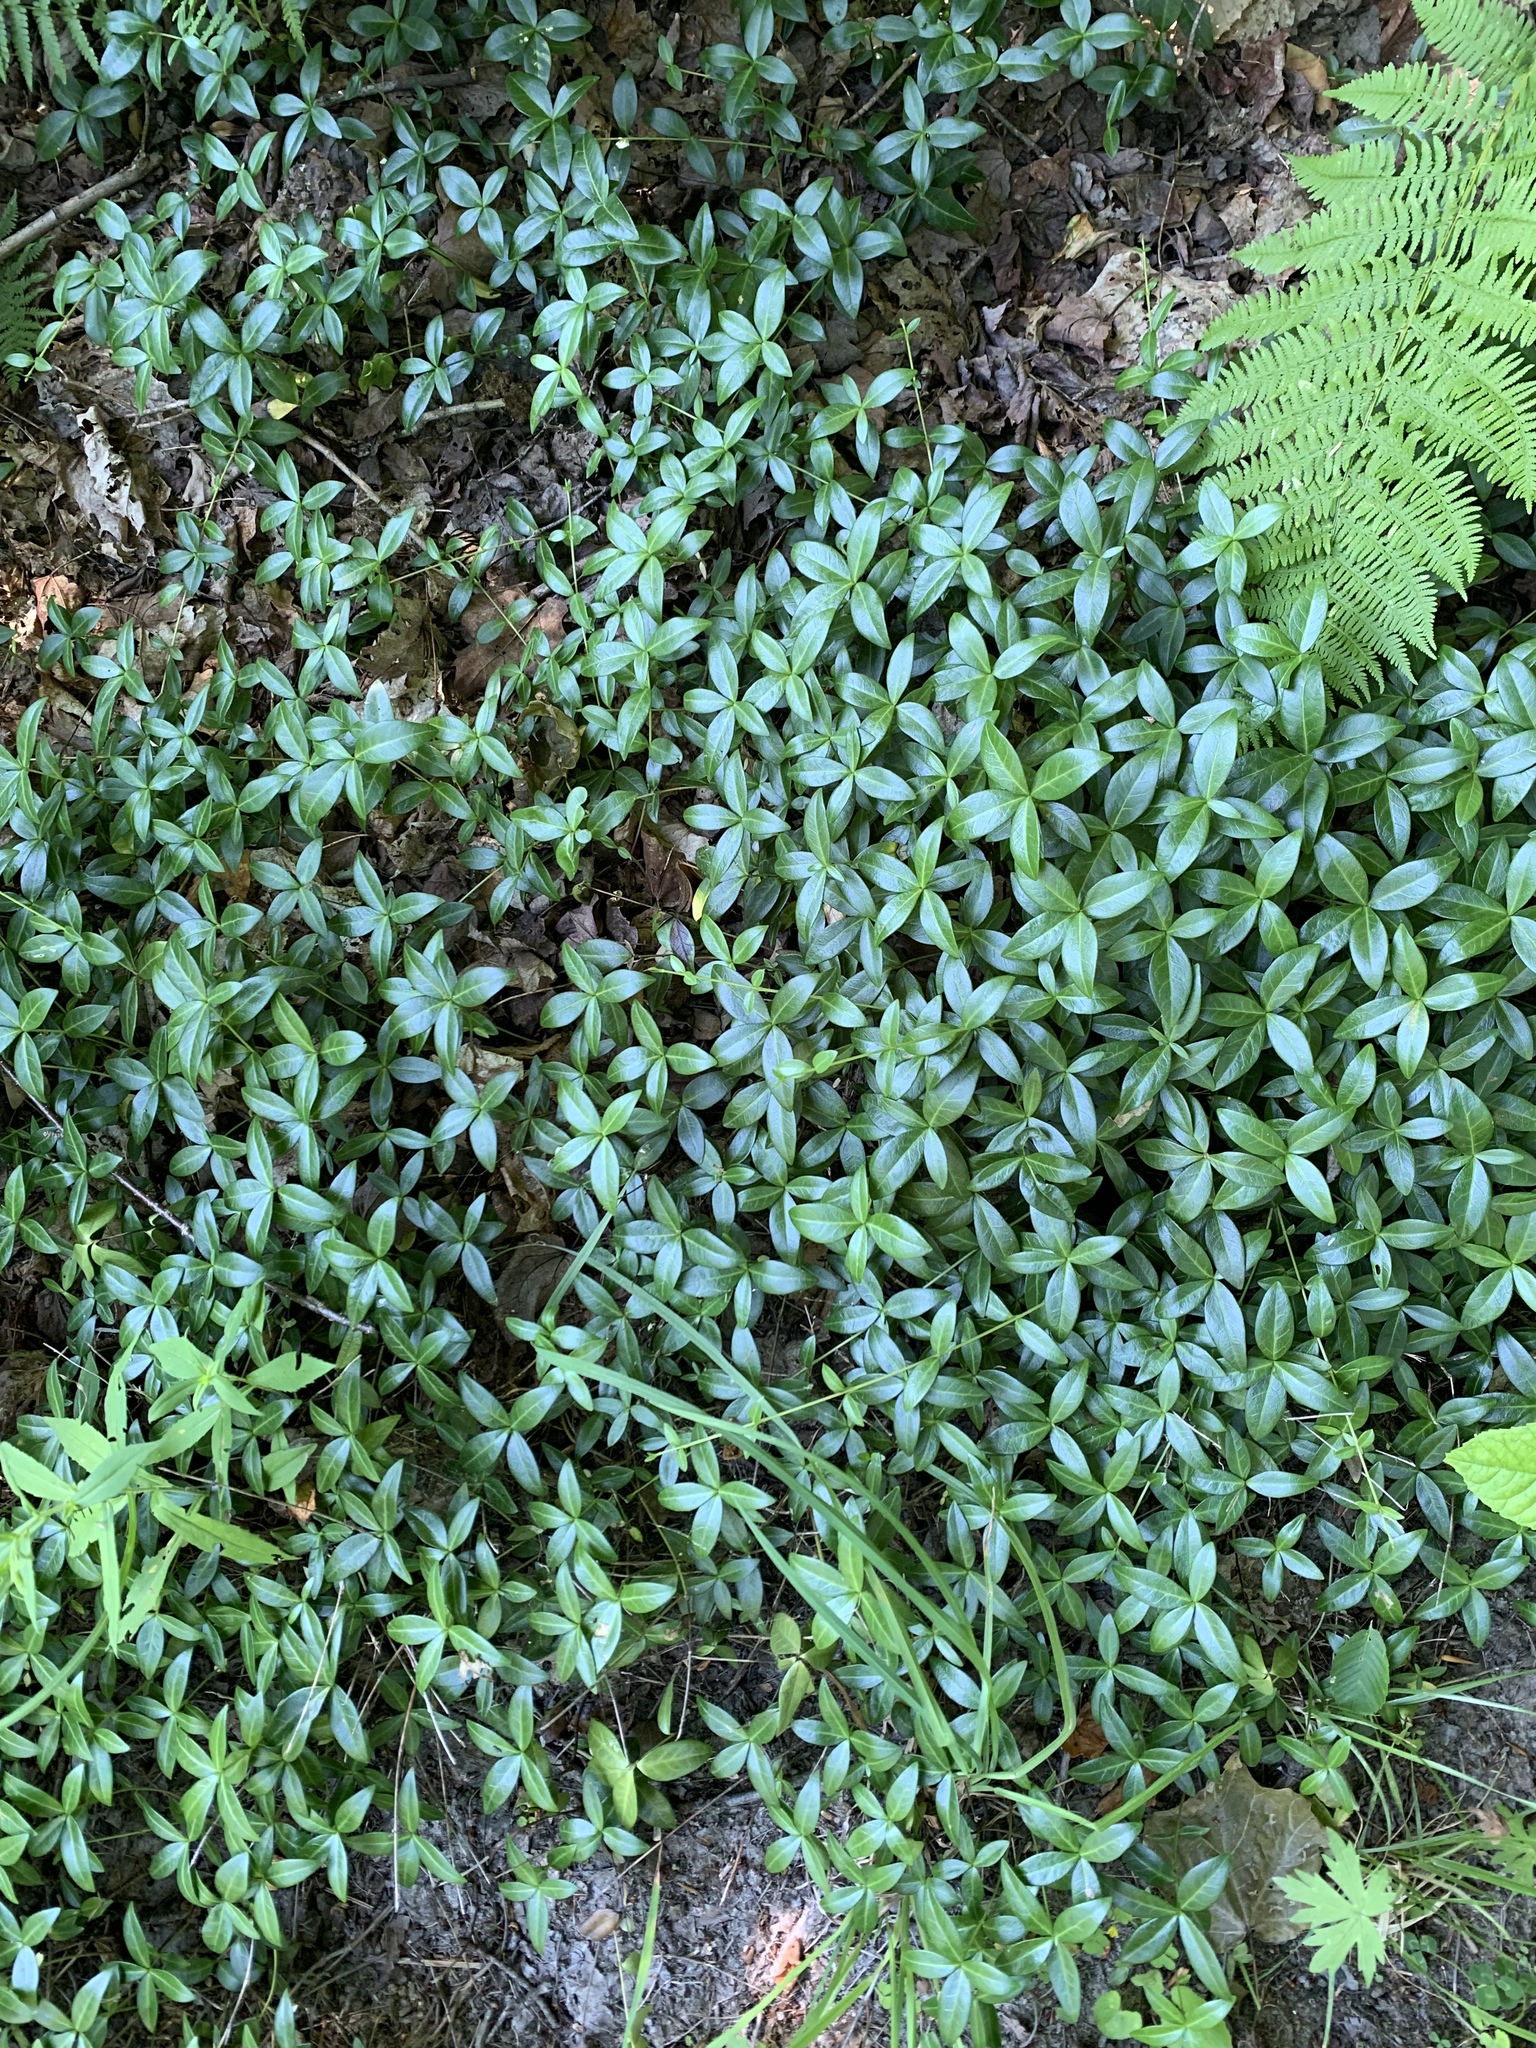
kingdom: Plantae
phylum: Tracheophyta
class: Magnoliopsida
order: Gentianales
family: Apocynaceae
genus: Vinca
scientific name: Vinca minor
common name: Lesser periwinkle
